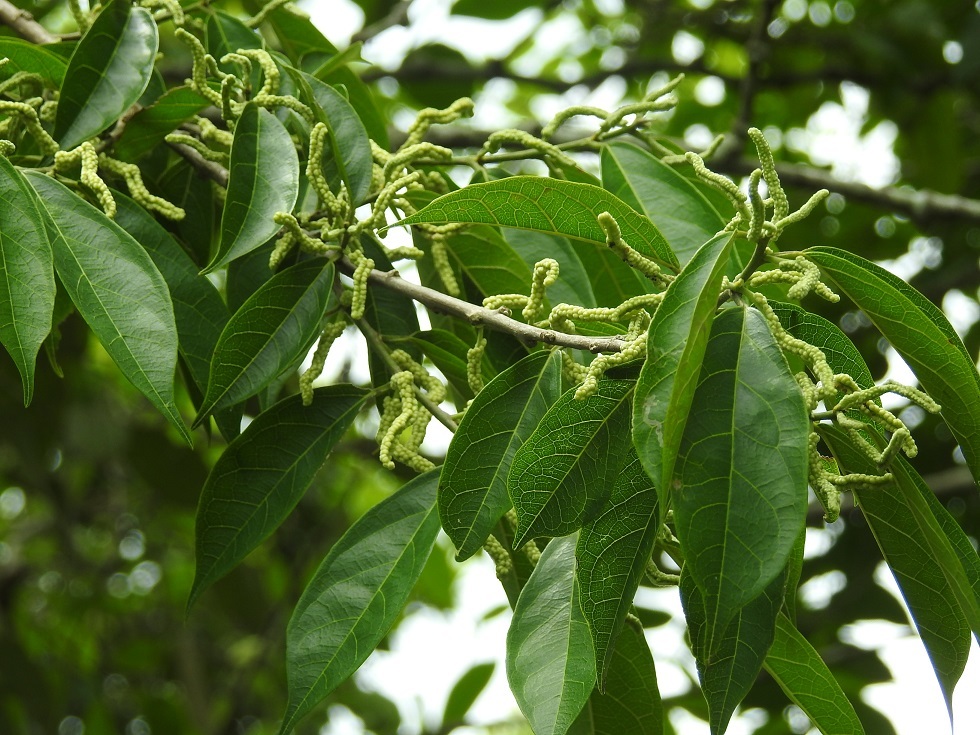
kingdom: Plantae
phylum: Tracheophyta
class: Magnoliopsida
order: Rosales
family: Moraceae
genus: Trophis
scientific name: Trophis racemosa
